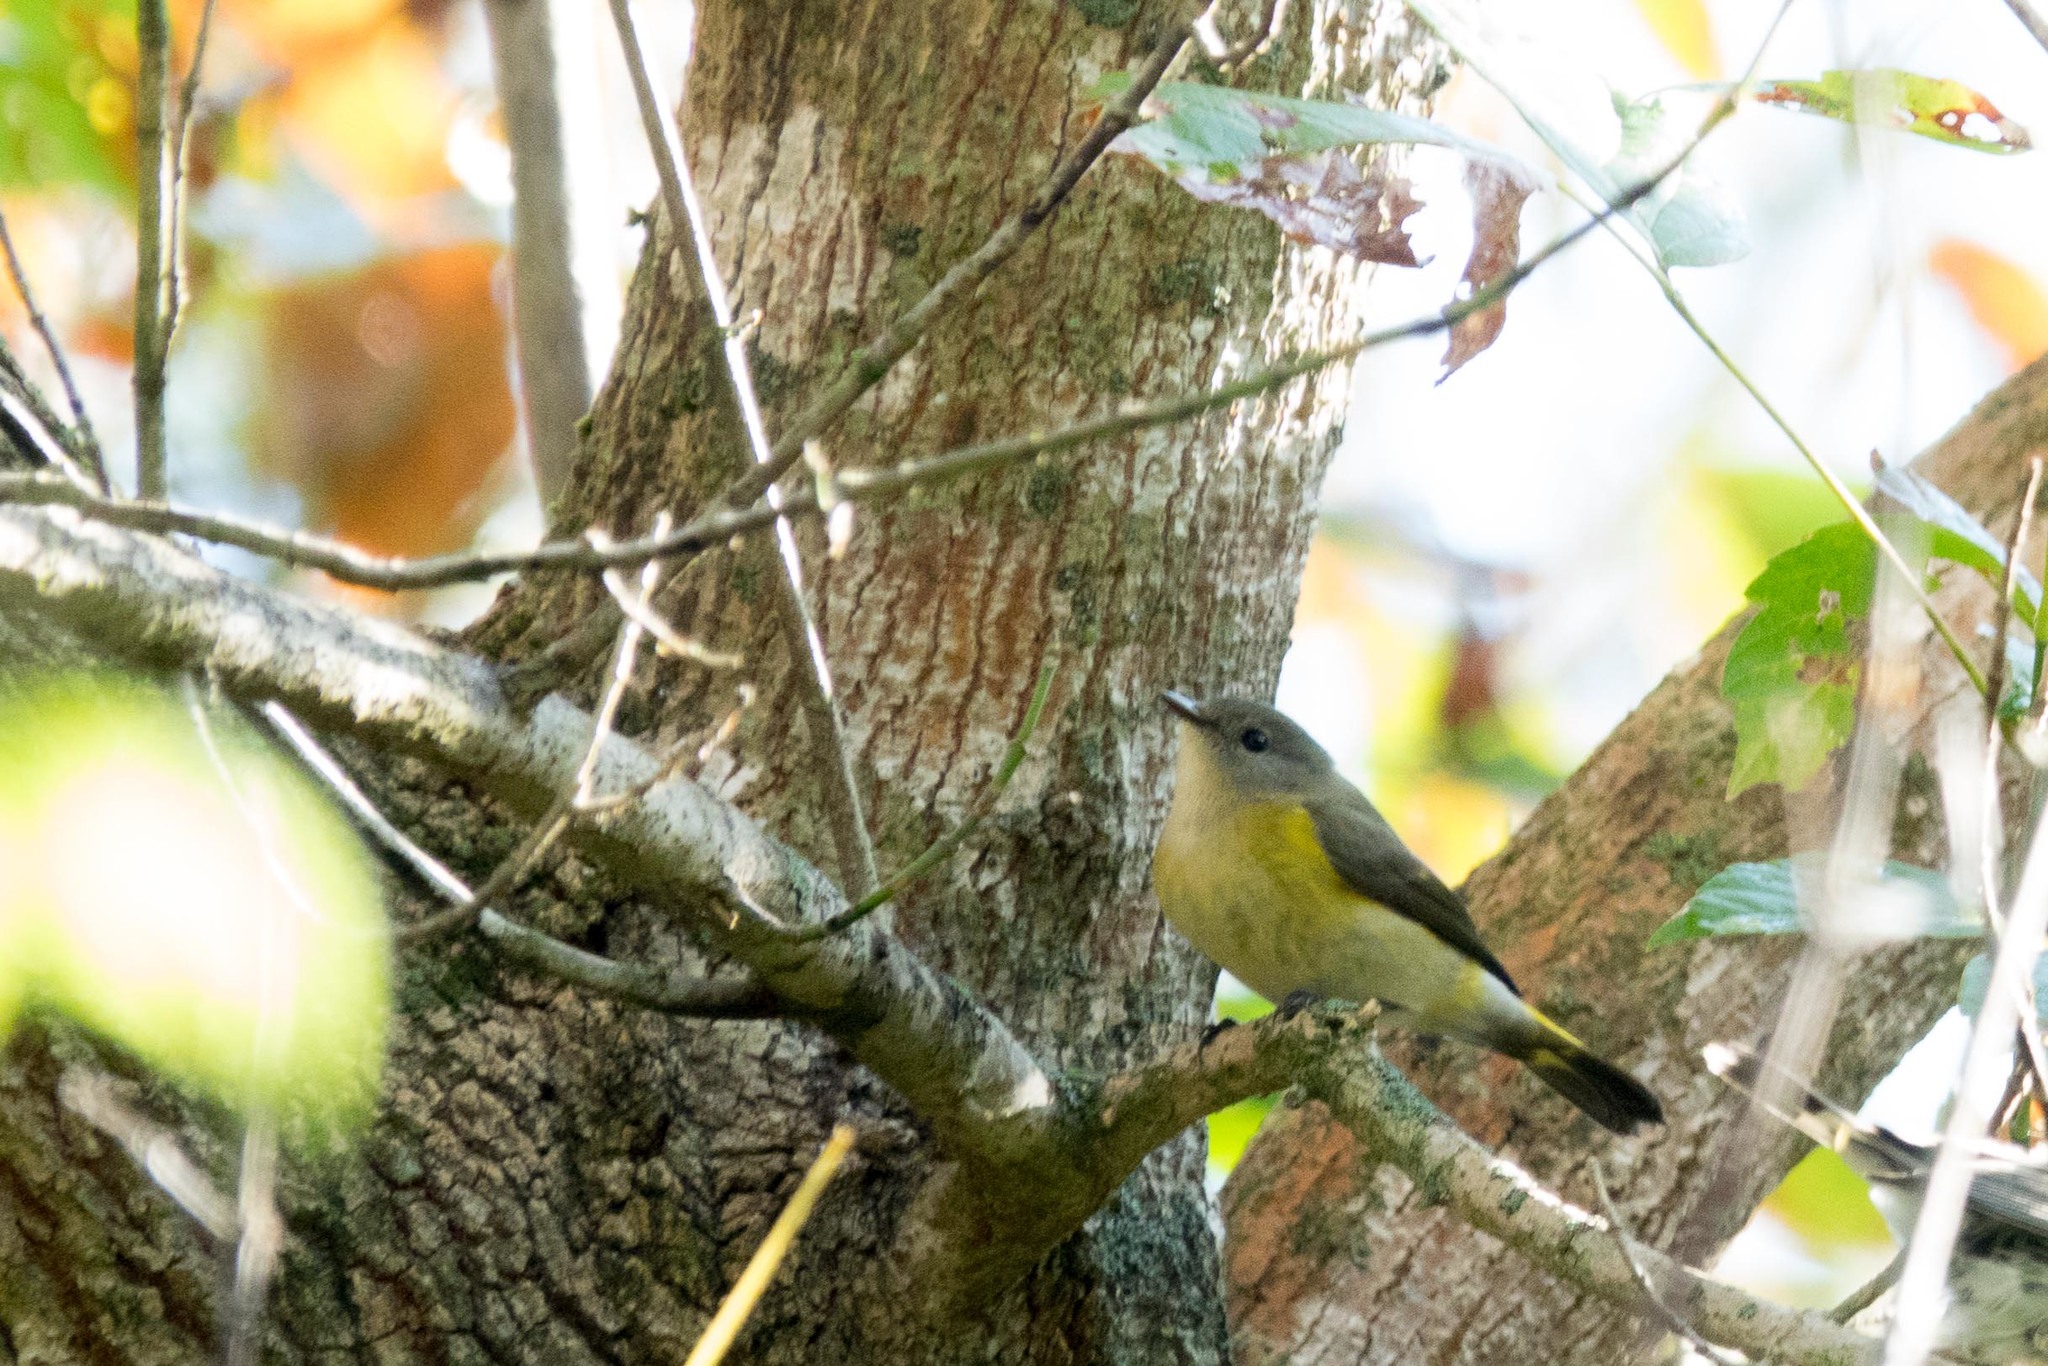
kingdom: Animalia
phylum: Chordata
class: Aves
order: Passeriformes
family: Parulidae
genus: Setophaga
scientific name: Setophaga ruticilla
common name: American redstart
